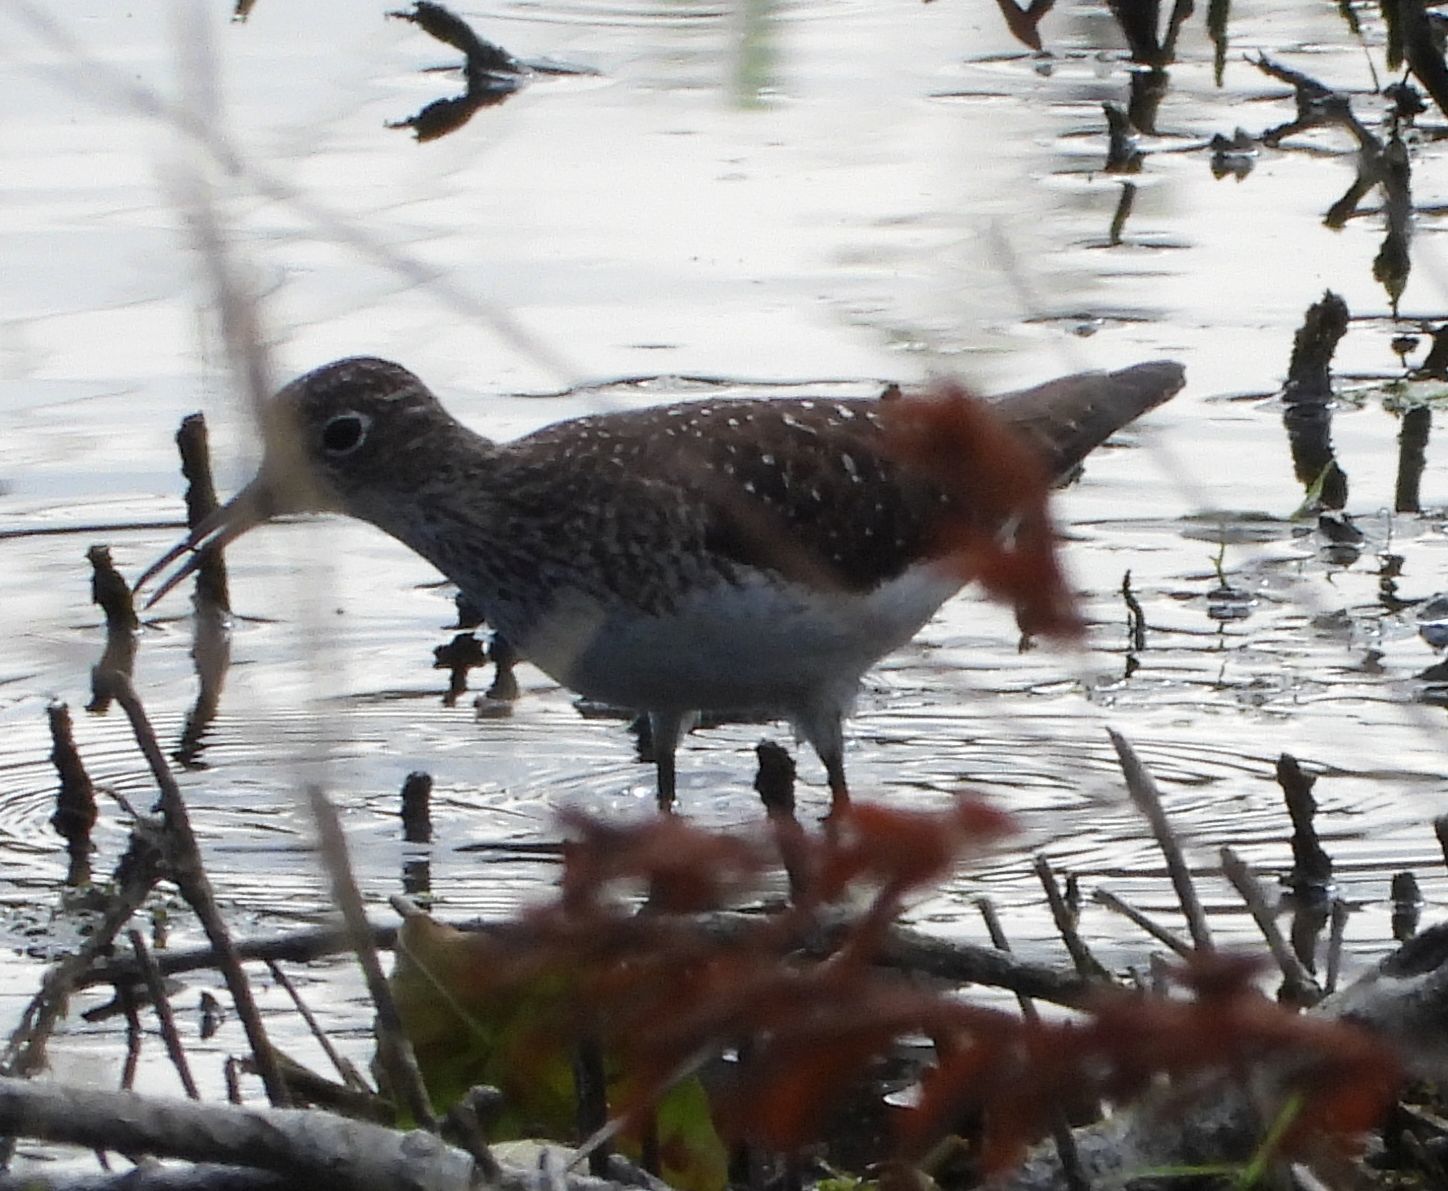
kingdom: Animalia
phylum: Chordata
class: Aves
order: Charadriiformes
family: Scolopacidae
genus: Tringa
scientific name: Tringa solitaria
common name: Solitary sandpiper
